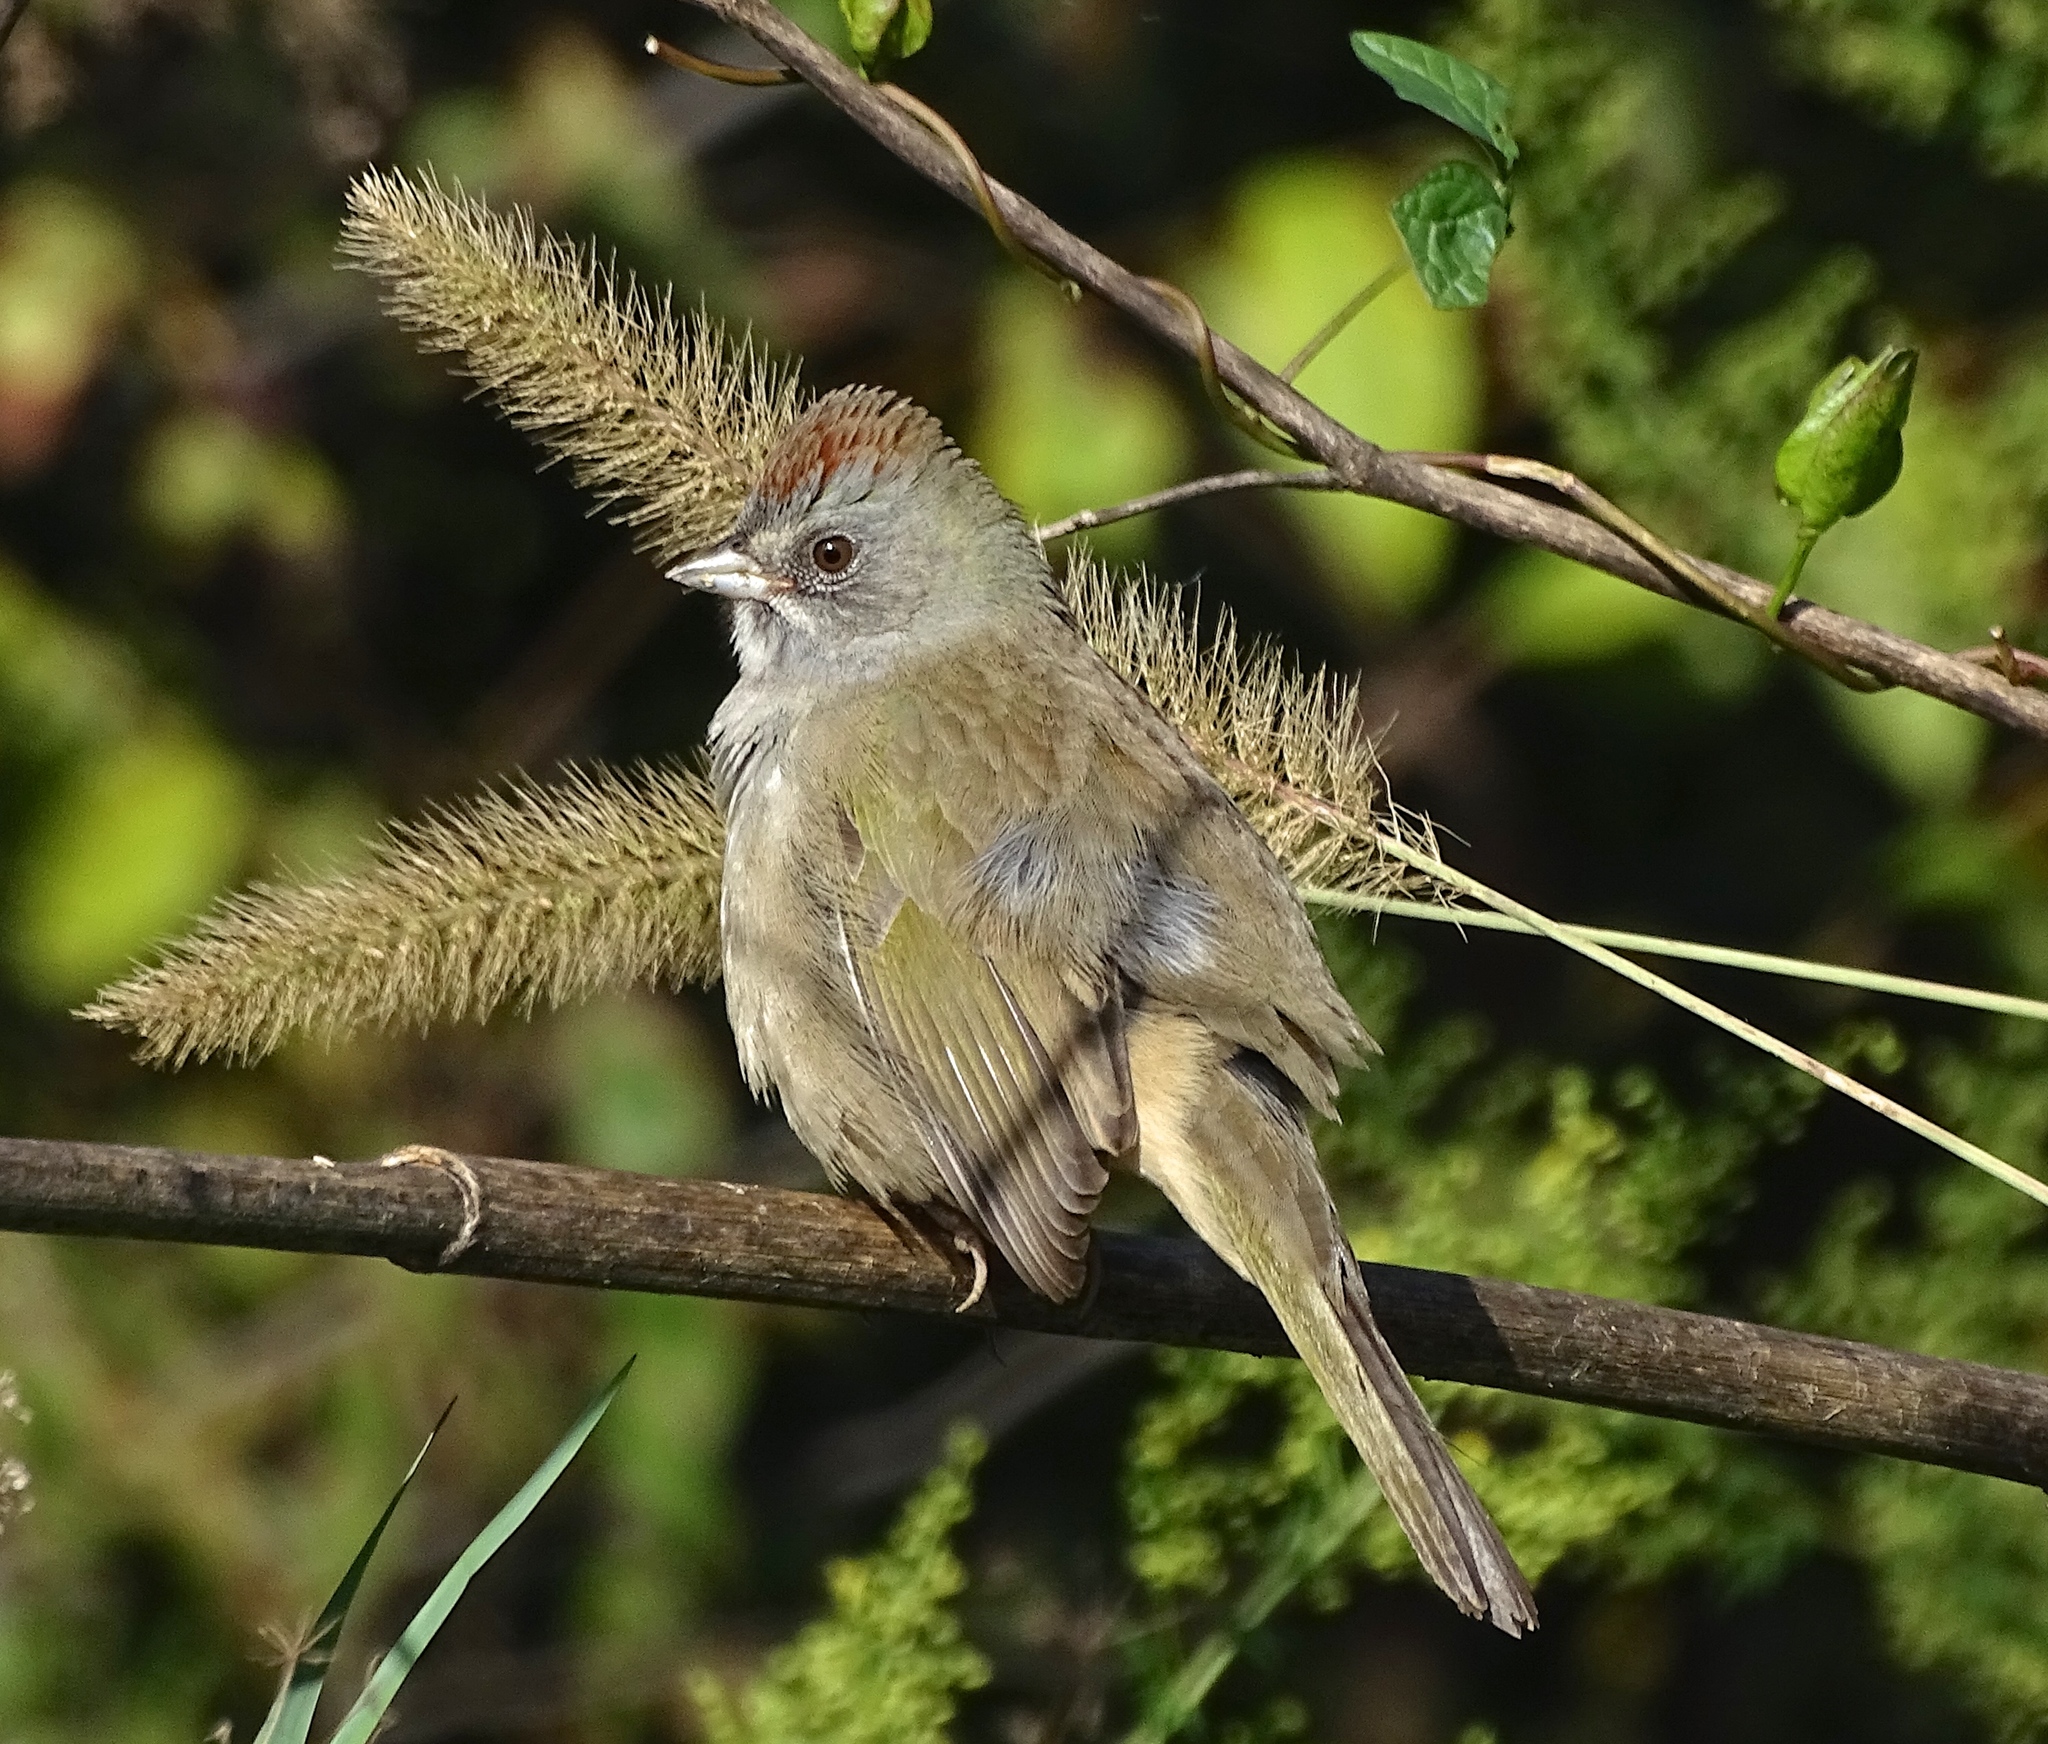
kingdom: Animalia
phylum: Chordata
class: Aves
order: Passeriformes
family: Passerellidae
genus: Pipilo
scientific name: Pipilo chlorurus
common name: Green-tailed towhee
